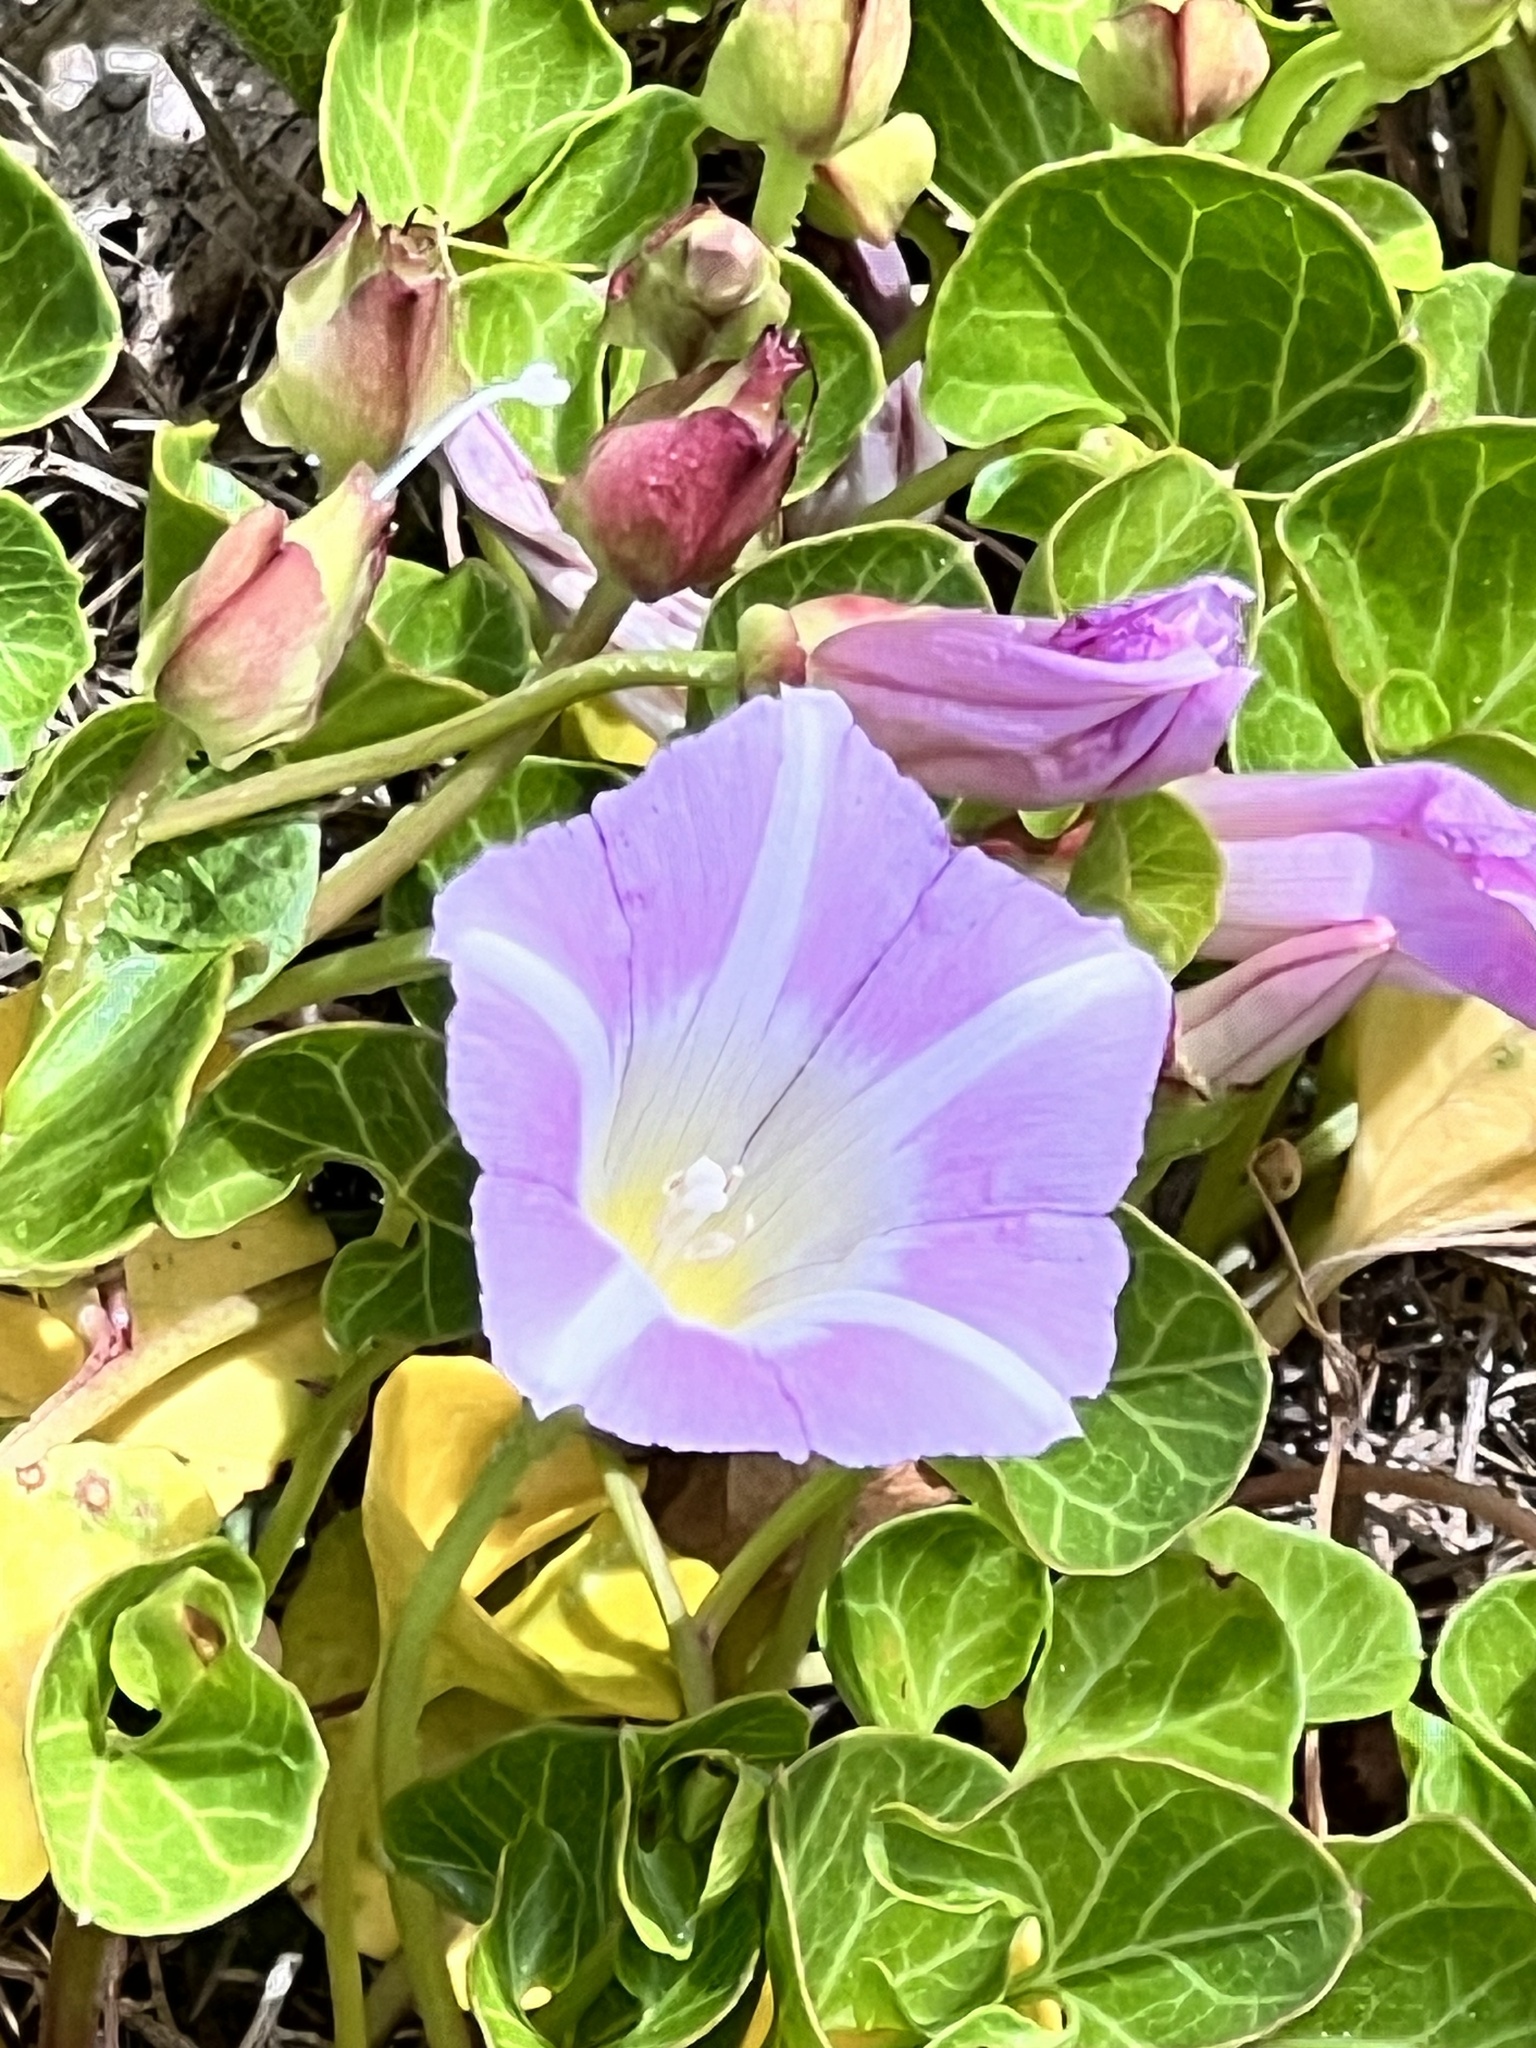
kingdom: Plantae
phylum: Tracheophyta
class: Magnoliopsida
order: Solanales
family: Convolvulaceae
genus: Calystegia
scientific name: Calystegia soldanella
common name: Sea bindweed
